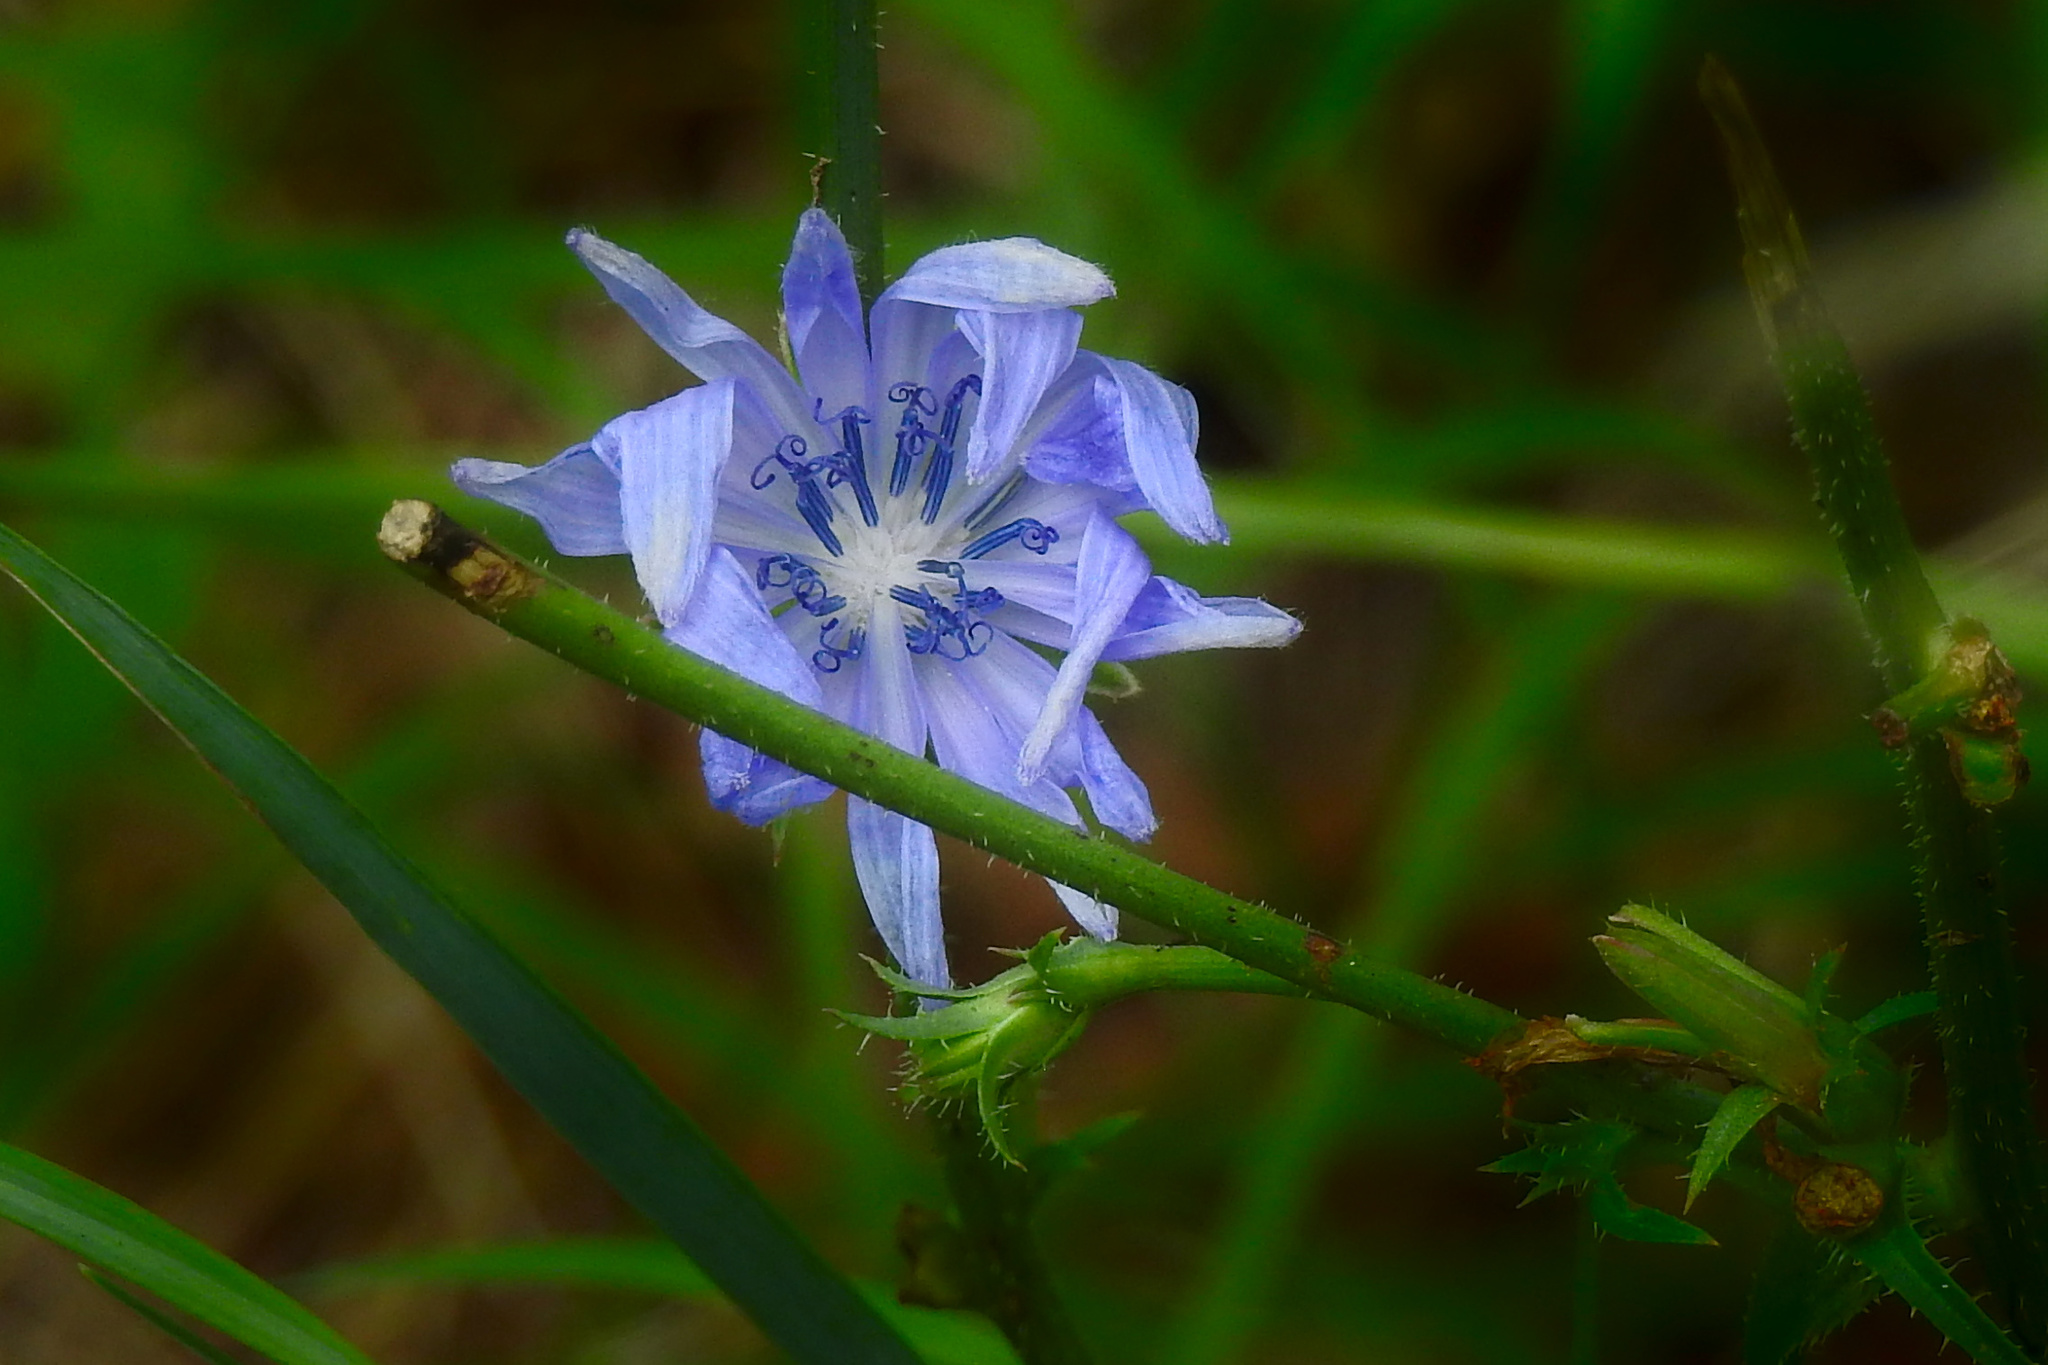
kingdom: Plantae
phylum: Tracheophyta
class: Magnoliopsida
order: Asterales
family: Asteraceae
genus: Cichorium
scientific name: Cichorium intybus
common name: Chicory
